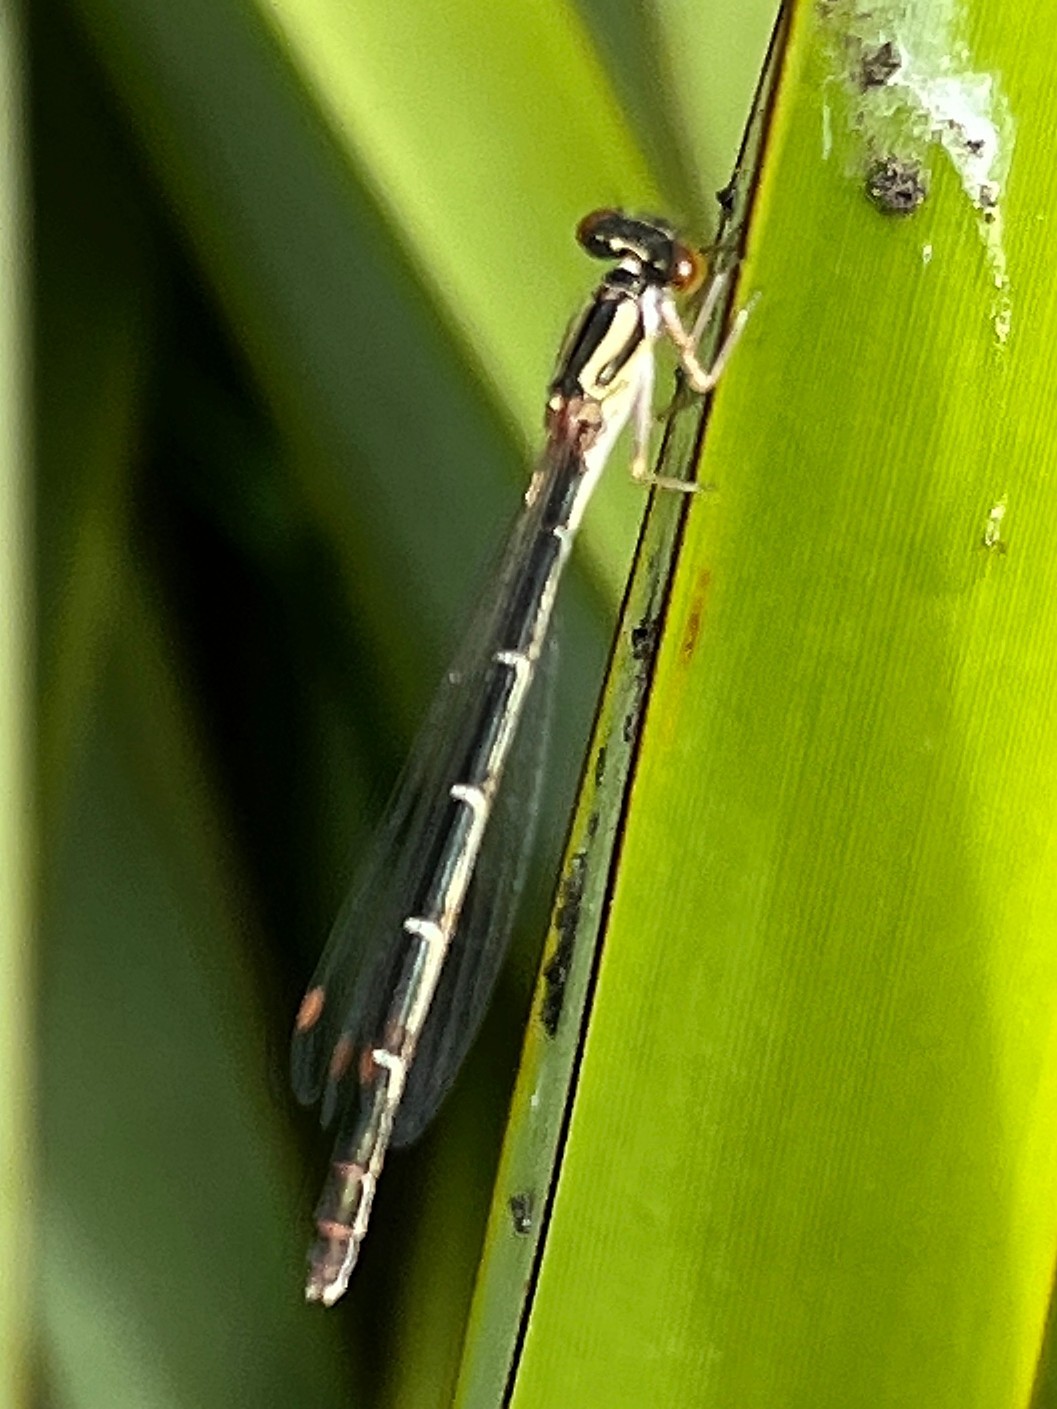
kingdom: Animalia
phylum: Arthropoda
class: Insecta
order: Odonata
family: Coenagrionidae
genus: Xanthocnemis
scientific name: Xanthocnemis zealandica
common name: Common redcoat damselfly
